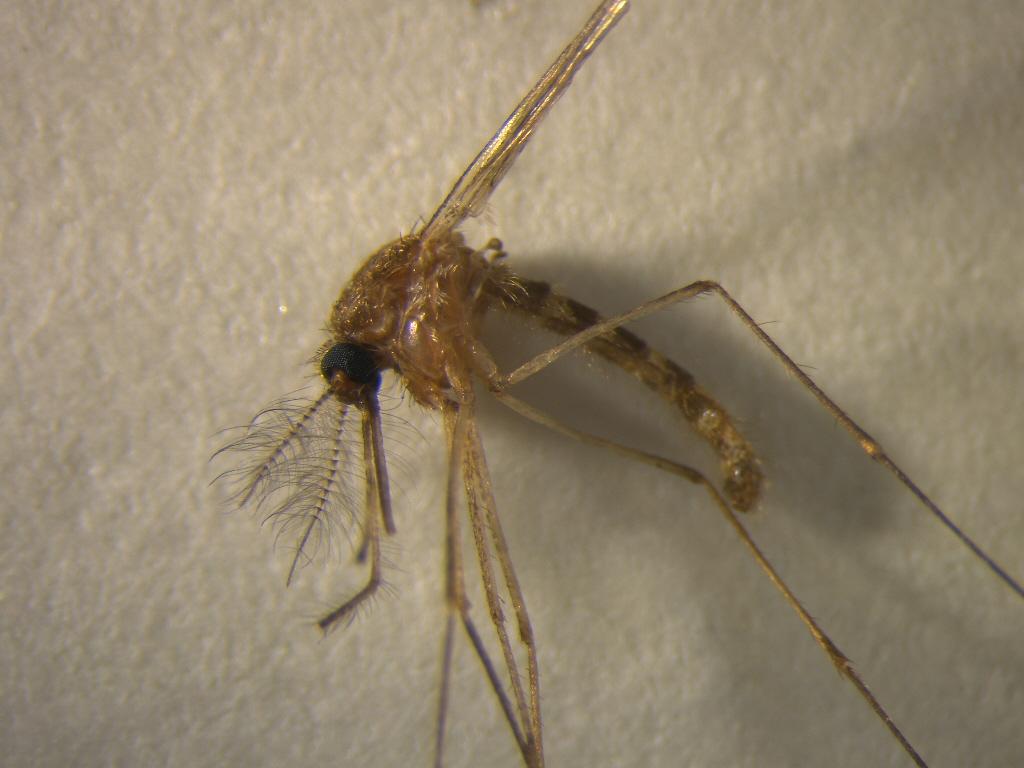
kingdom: Animalia
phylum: Arthropoda
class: Insecta
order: Diptera
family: Culicidae
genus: Culex
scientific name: Culex quinquefasciatus
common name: Southern house mosquito
